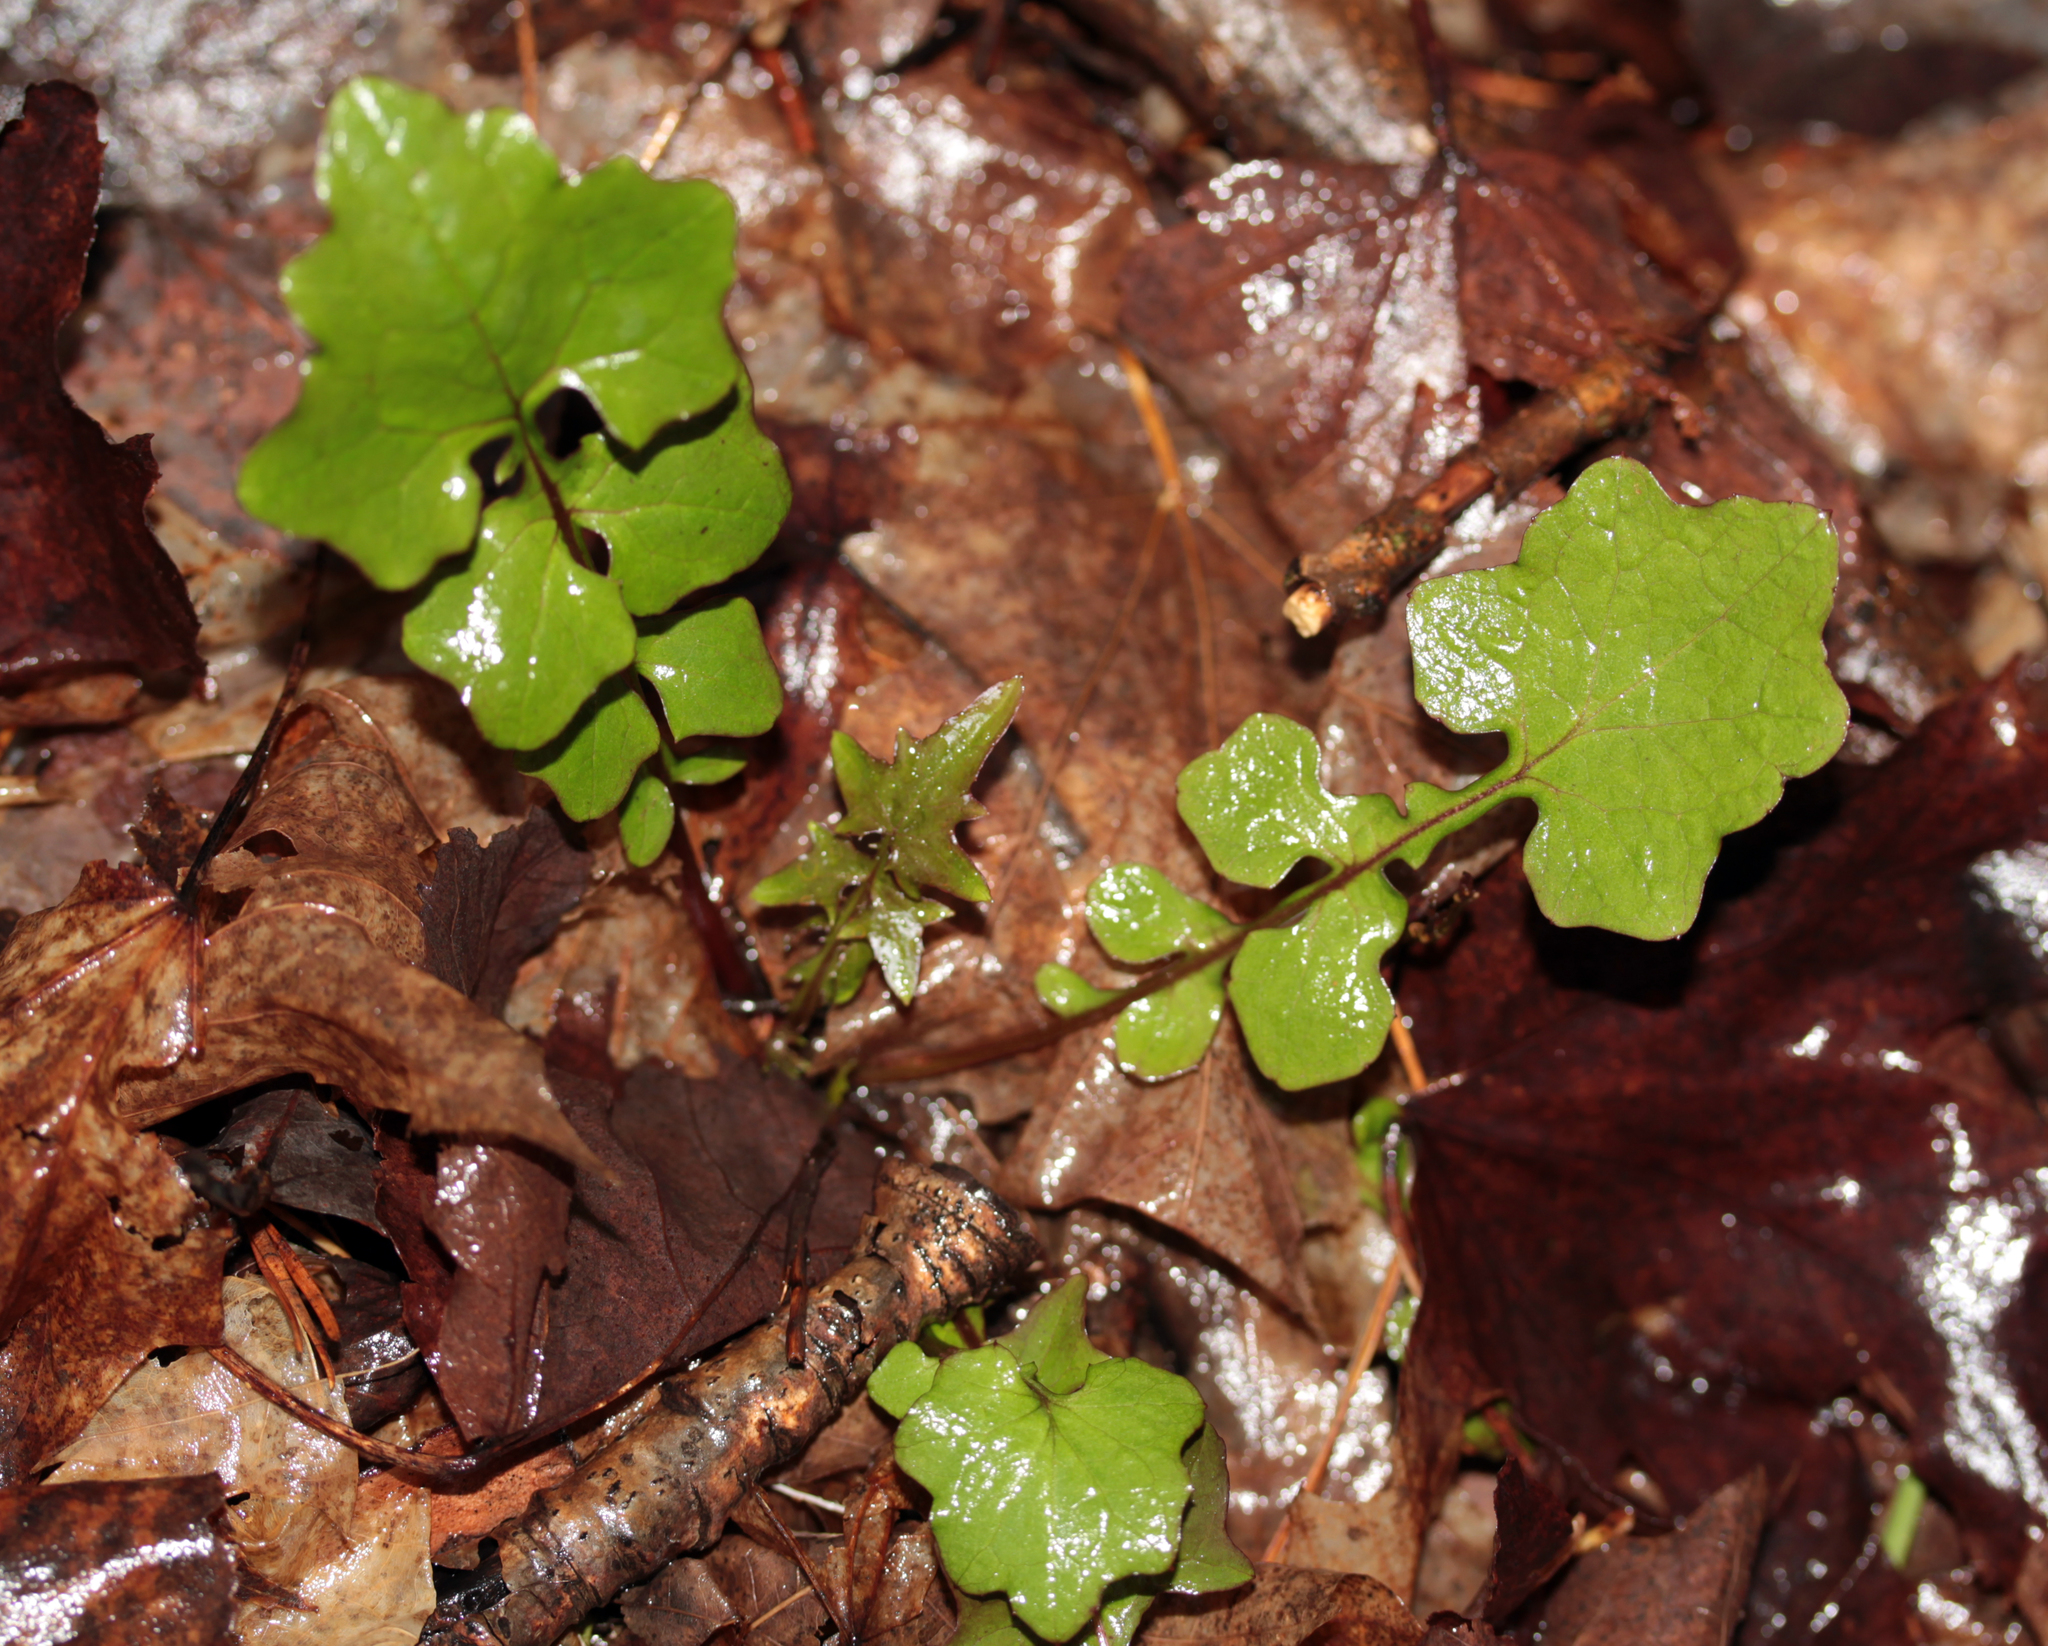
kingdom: Plantae
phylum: Tracheophyta
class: Magnoliopsida
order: Asterales
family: Asteraceae
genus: Mycelis
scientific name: Mycelis muralis
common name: Wall lettuce
